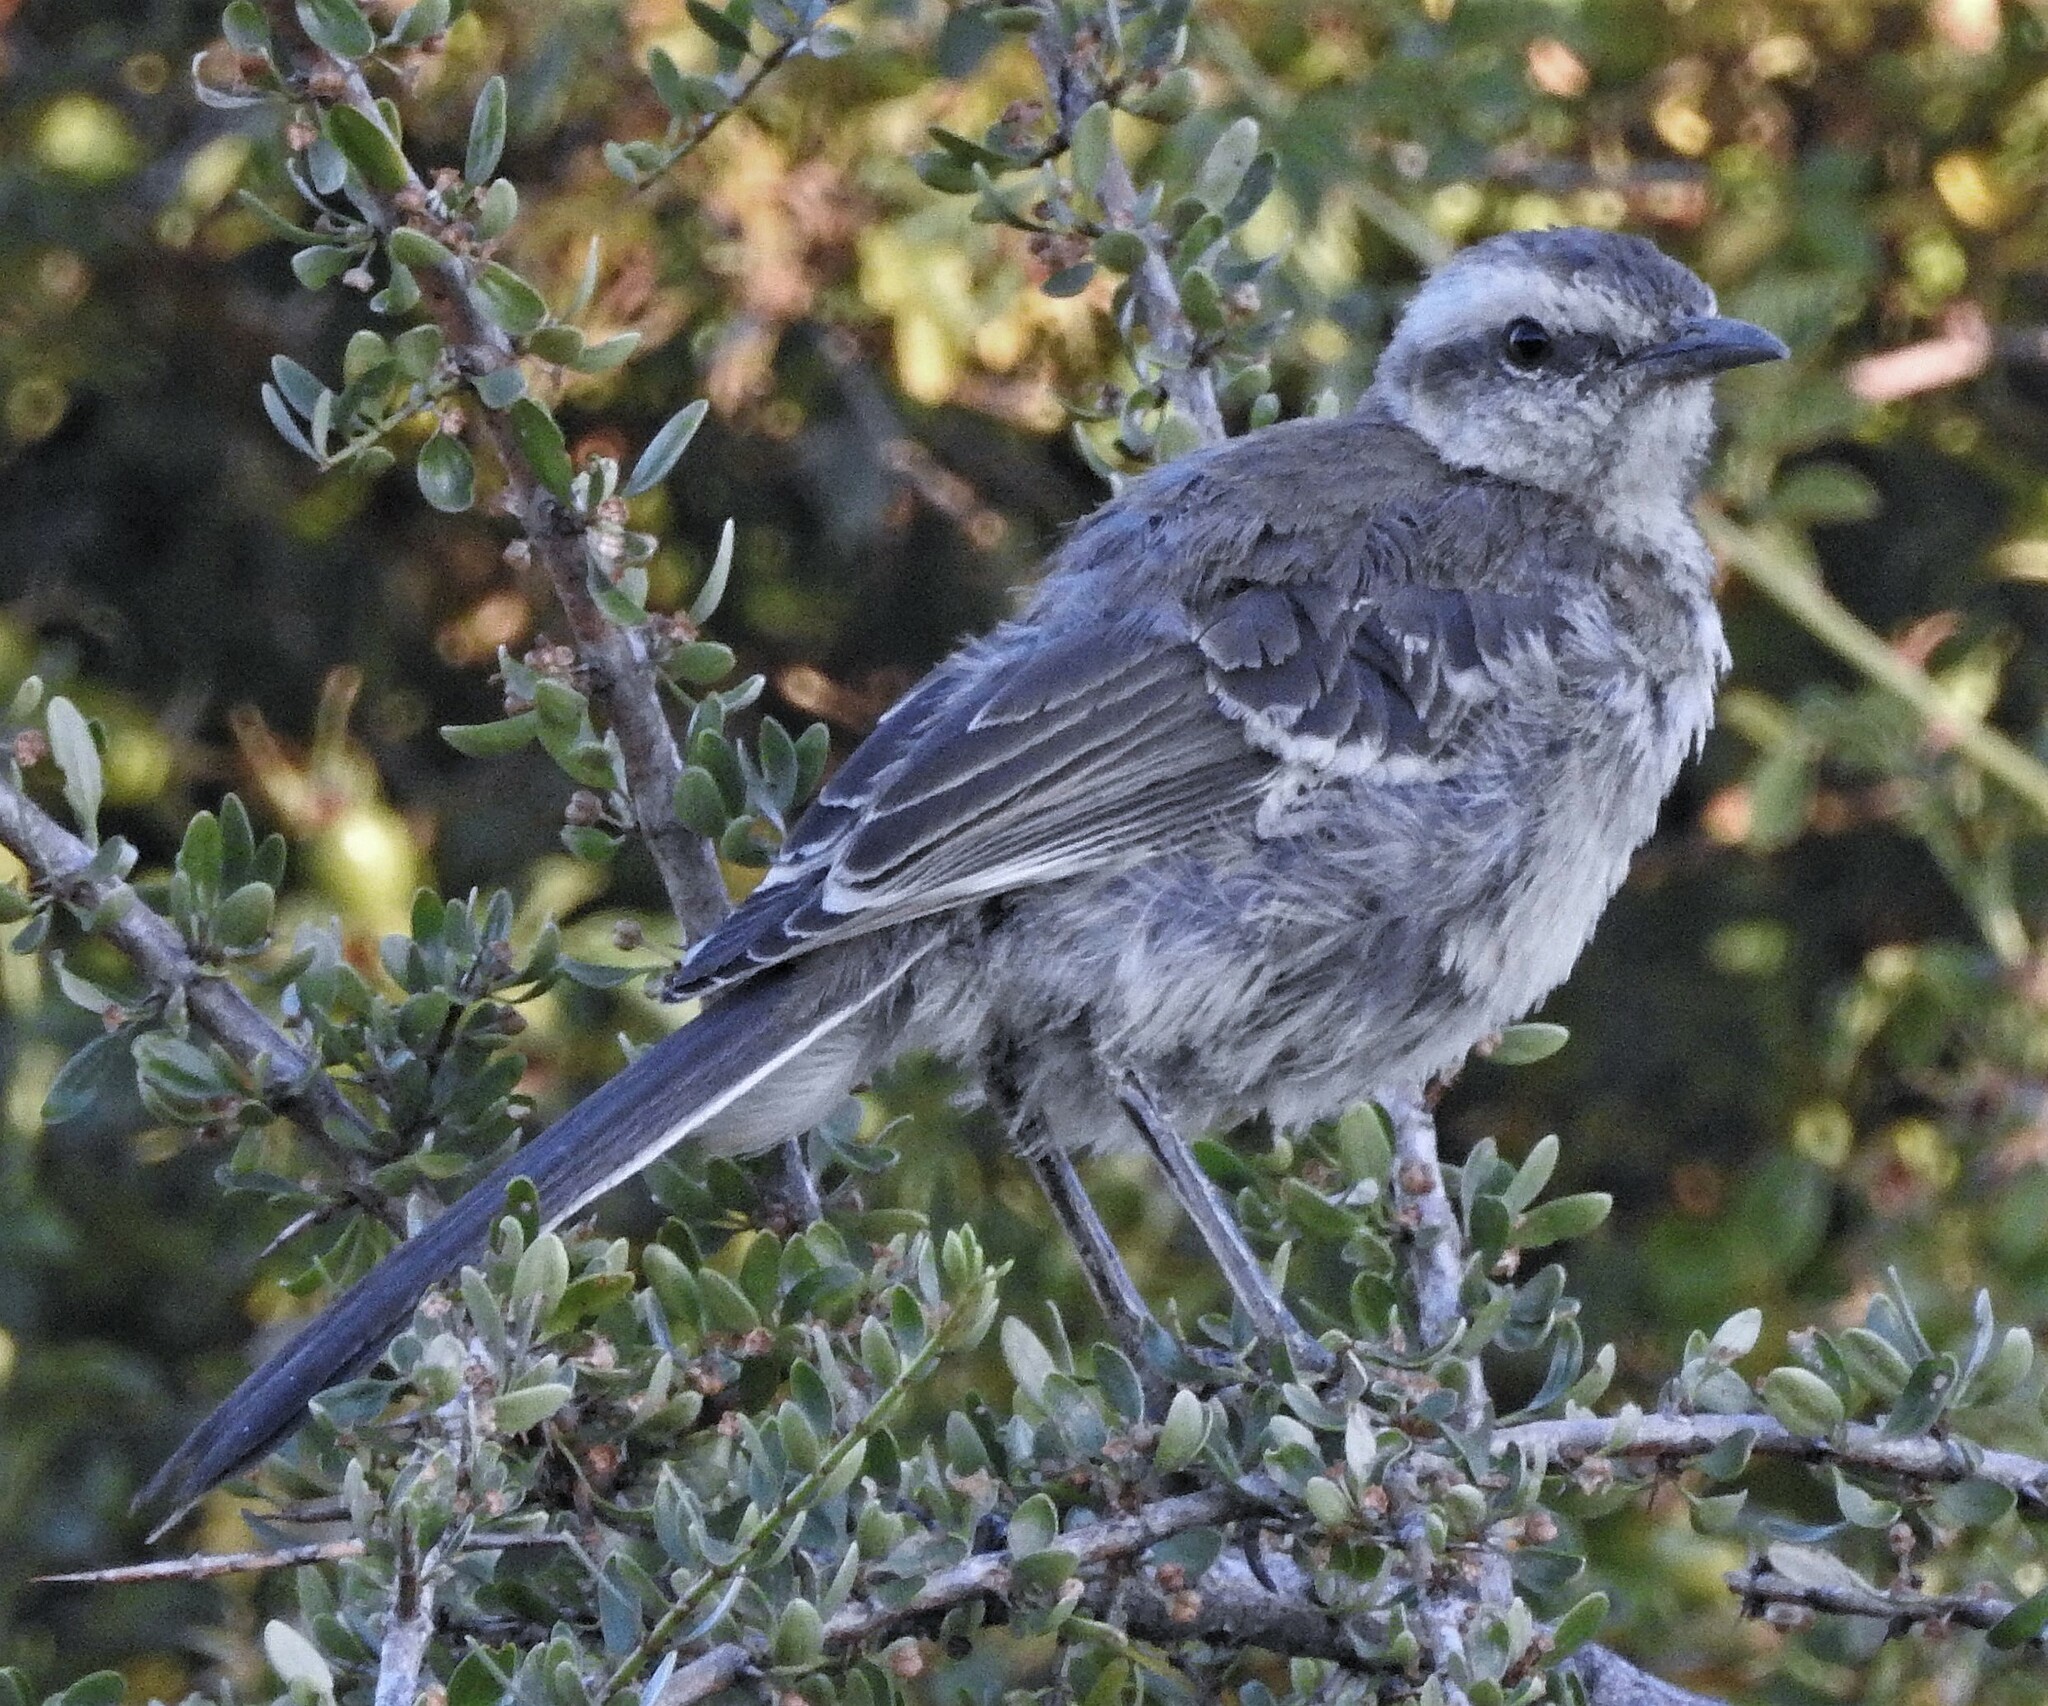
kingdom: Animalia
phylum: Chordata
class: Aves
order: Passeriformes
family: Mimidae
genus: Mimus
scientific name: Mimus thenca
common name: Chilean mockingbird
